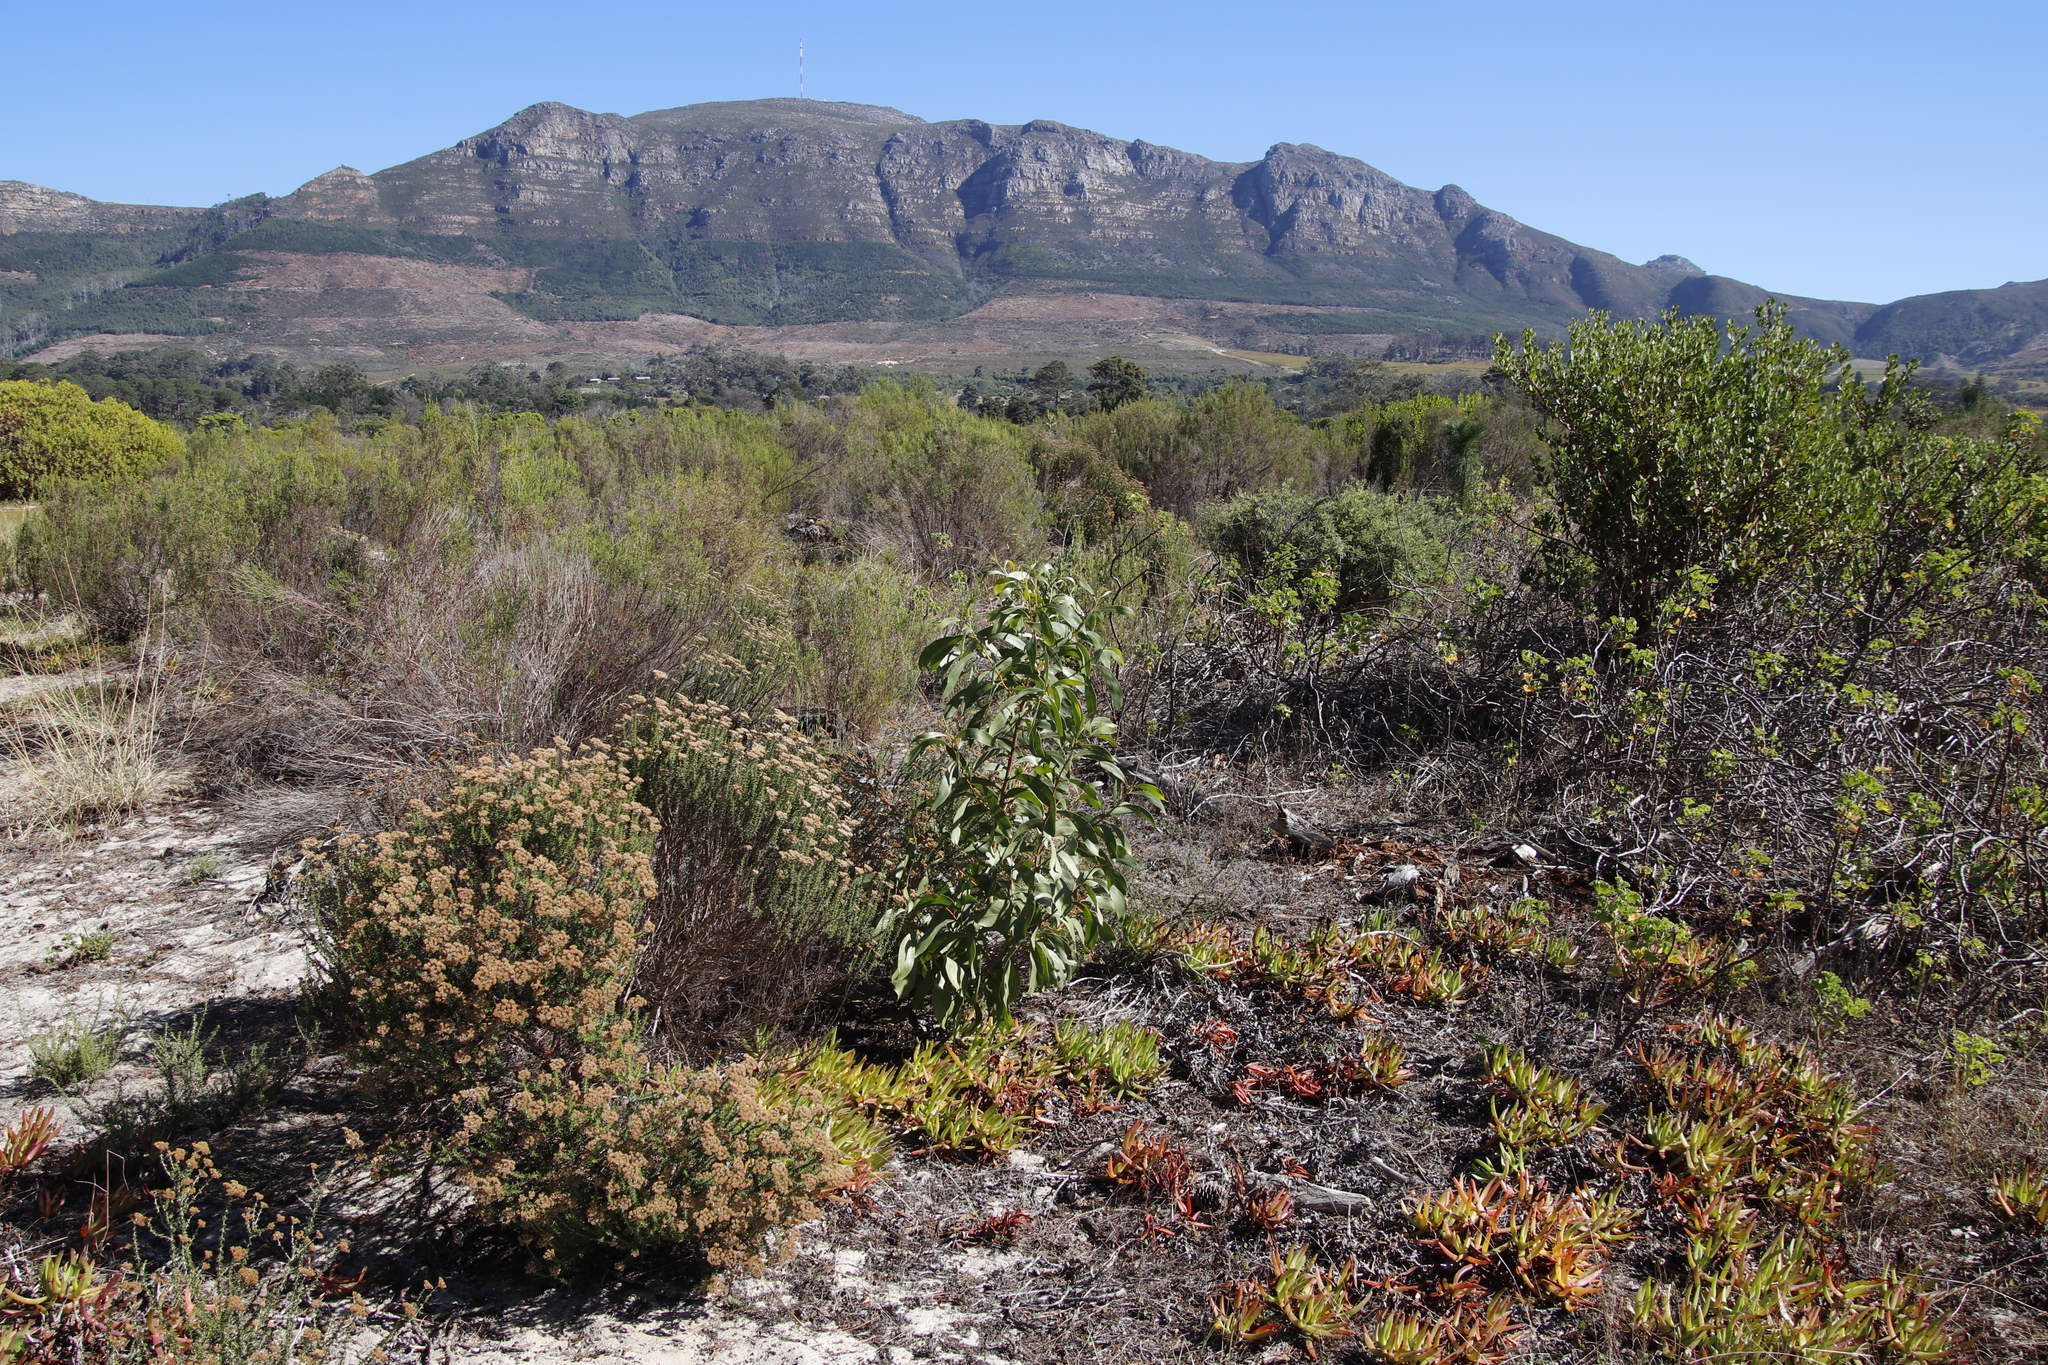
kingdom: Plantae
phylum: Tracheophyta
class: Magnoliopsida
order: Fabales
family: Fabaceae
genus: Acacia
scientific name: Acacia pycnantha
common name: Golden wattle
